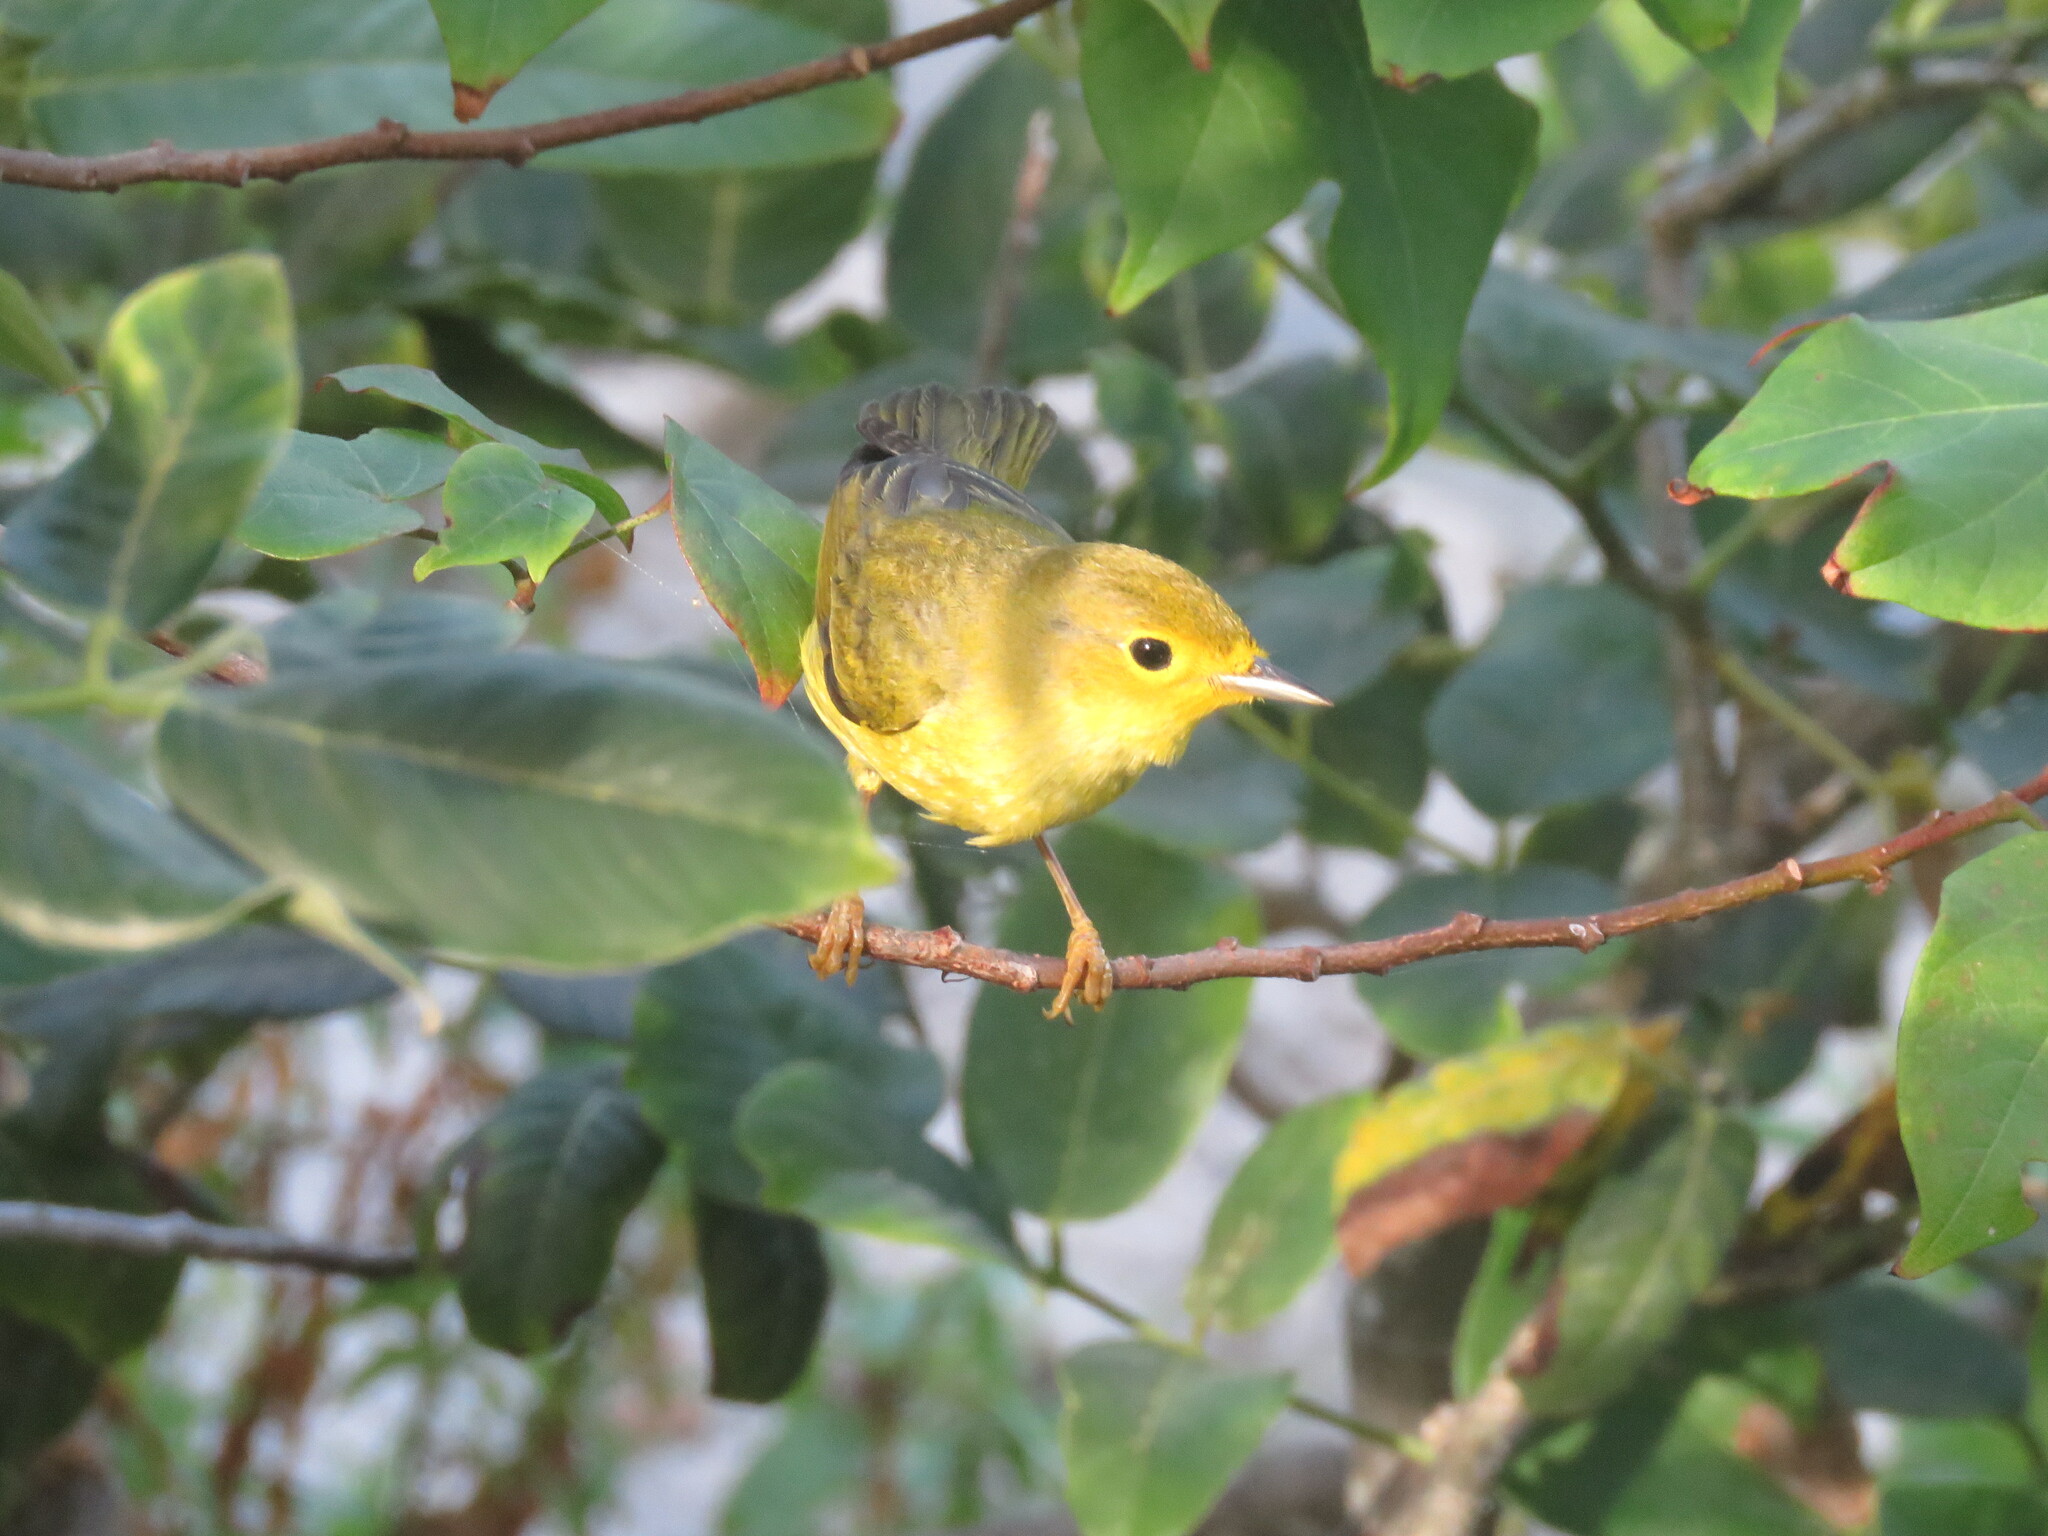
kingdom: Animalia
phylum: Chordata
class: Aves
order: Passeriformes
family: Parulidae
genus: Setophaga
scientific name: Setophaga petechia
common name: Yellow warbler
